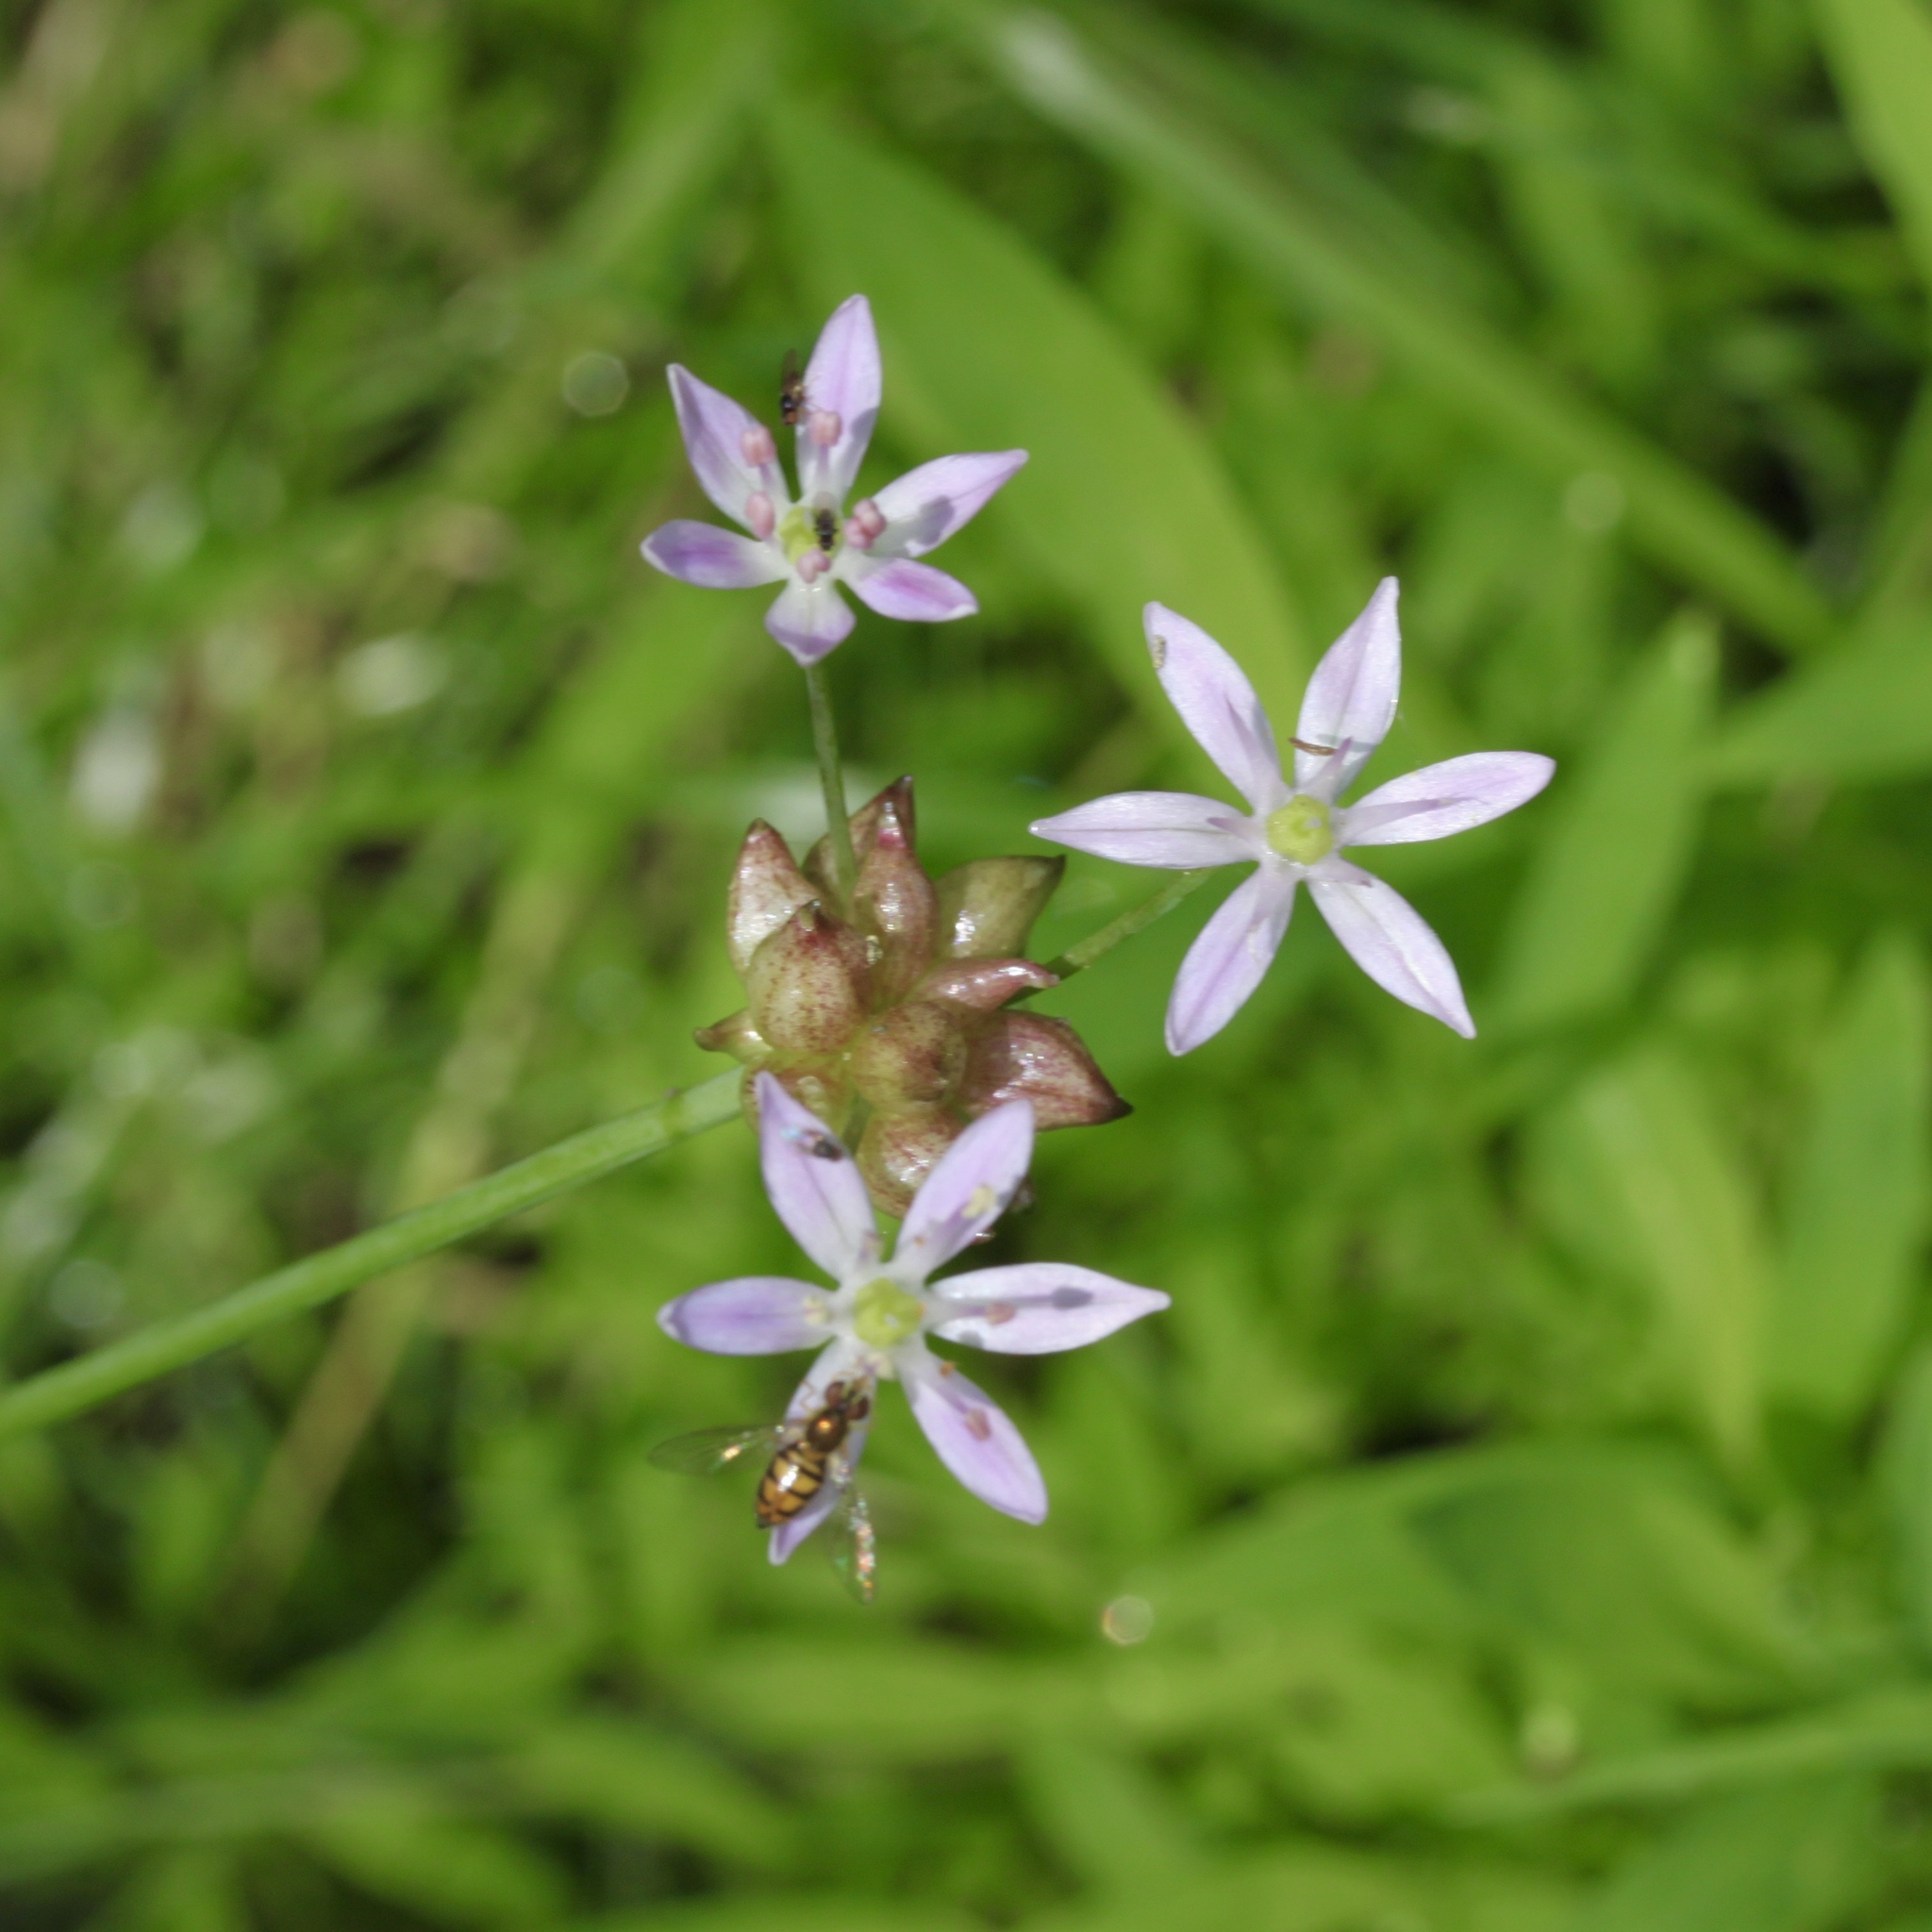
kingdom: Plantae
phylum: Tracheophyta
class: Liliopsida
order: Asparagales
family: Amaryllidaceae
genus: Allium
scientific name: Allium canadense
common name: Meadow garlic
